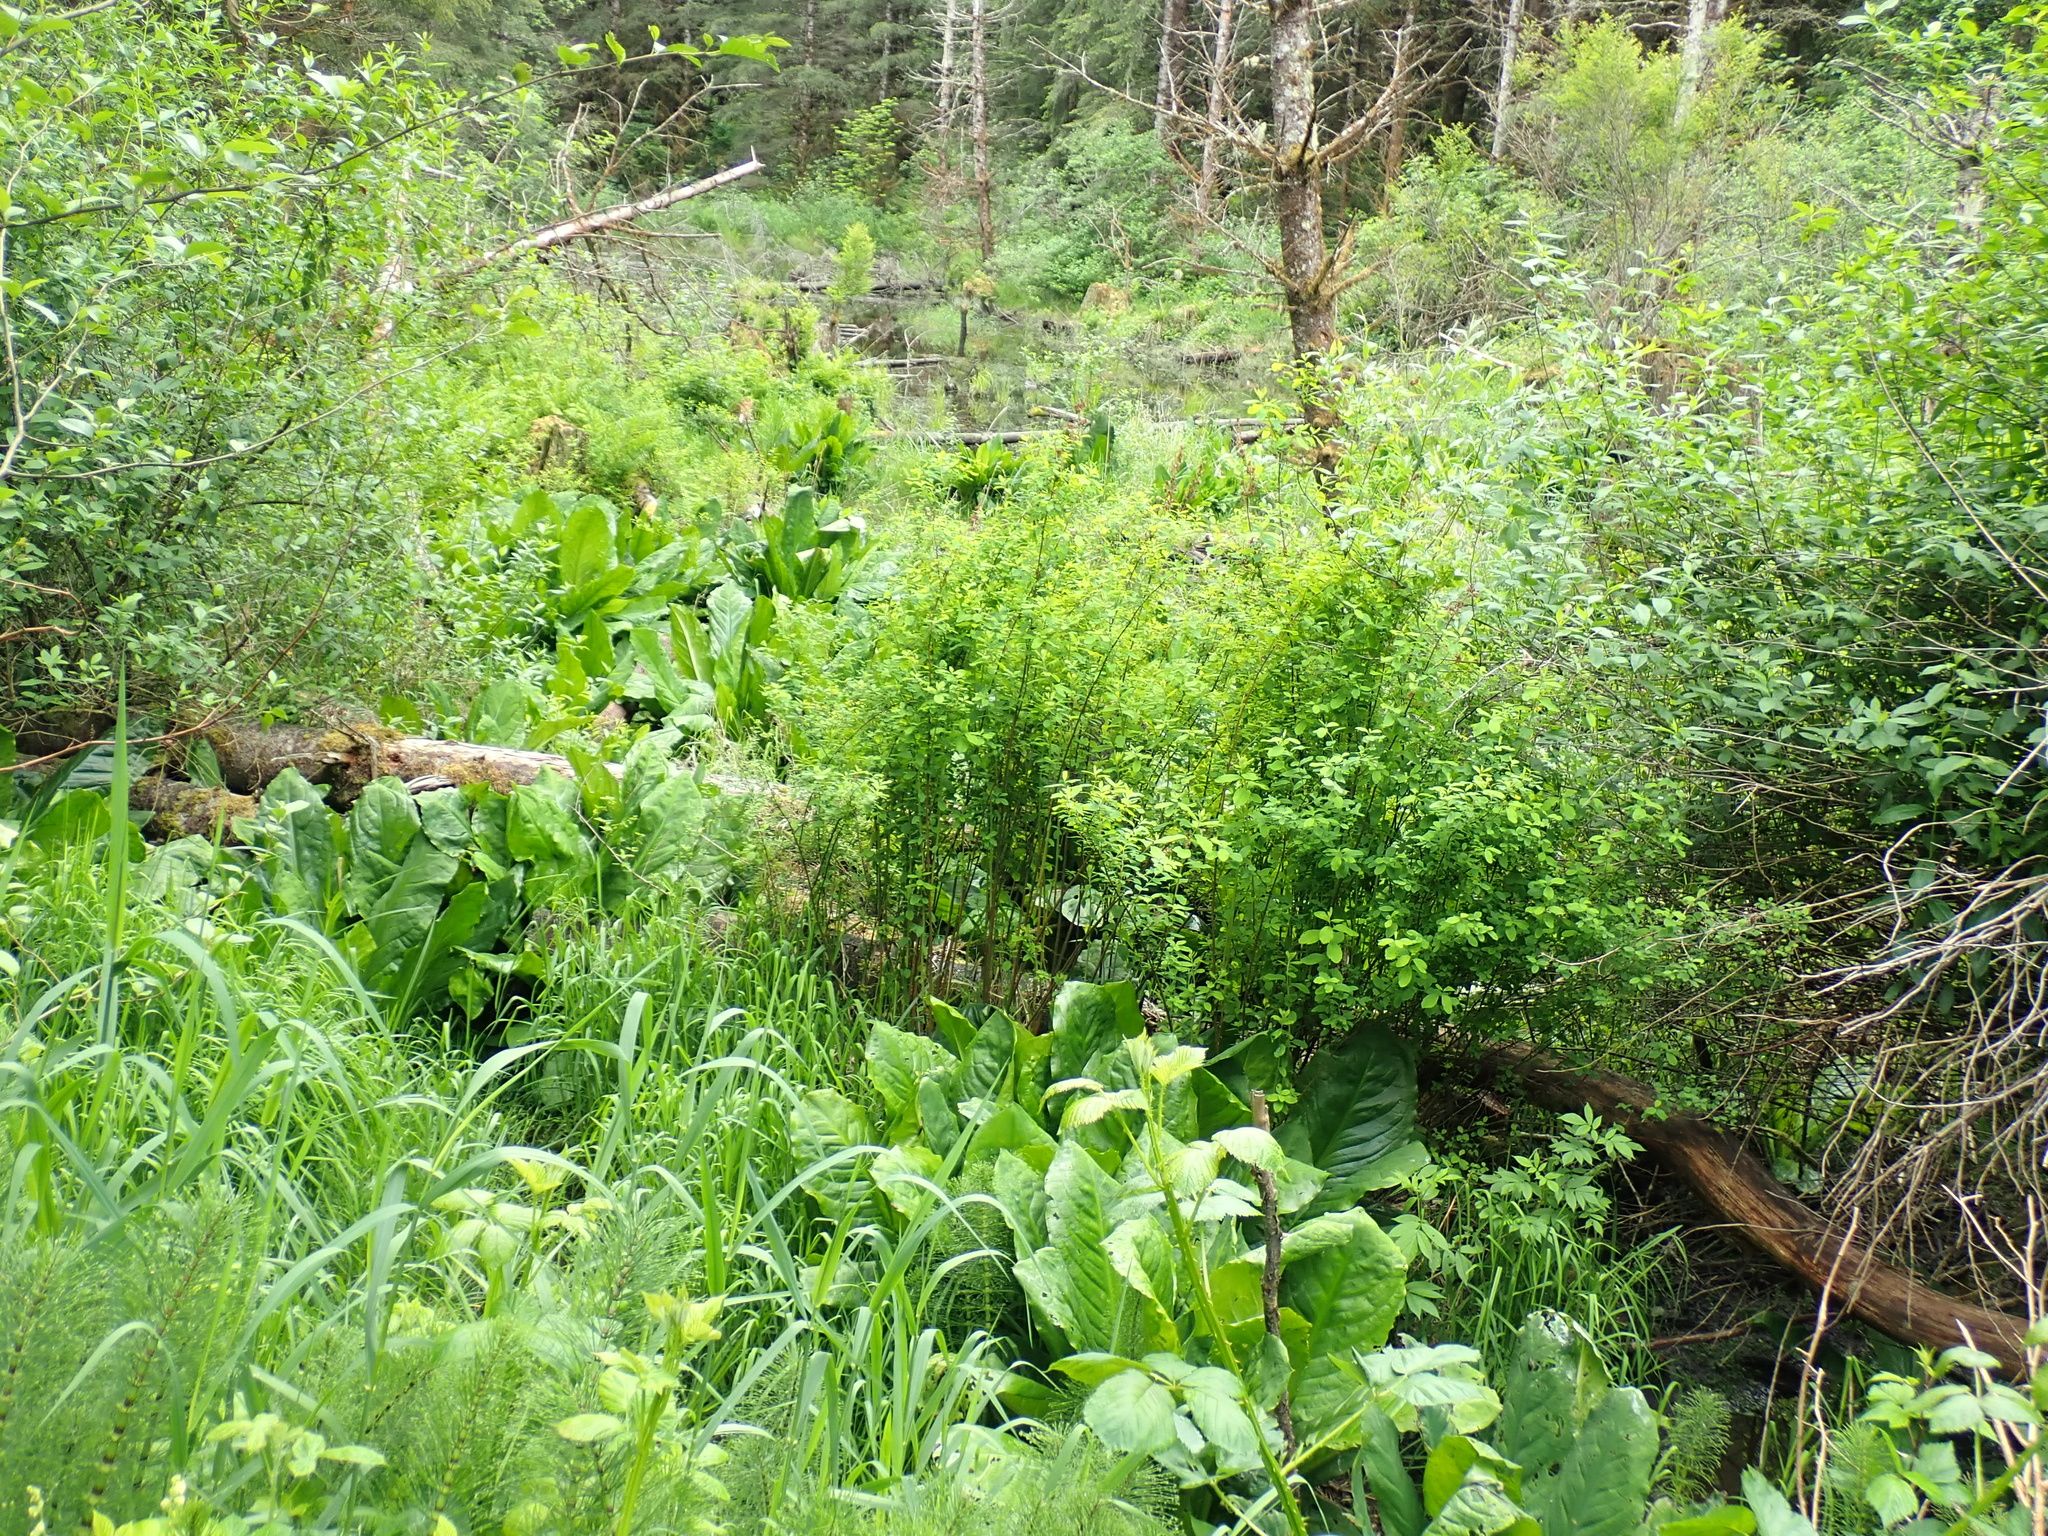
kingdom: Plantae
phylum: Tracheophyta
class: Liliopsida
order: Alismatales
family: Araceae
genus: Lysichiton
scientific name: Lysichiton americanus
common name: American skunk cabbage
